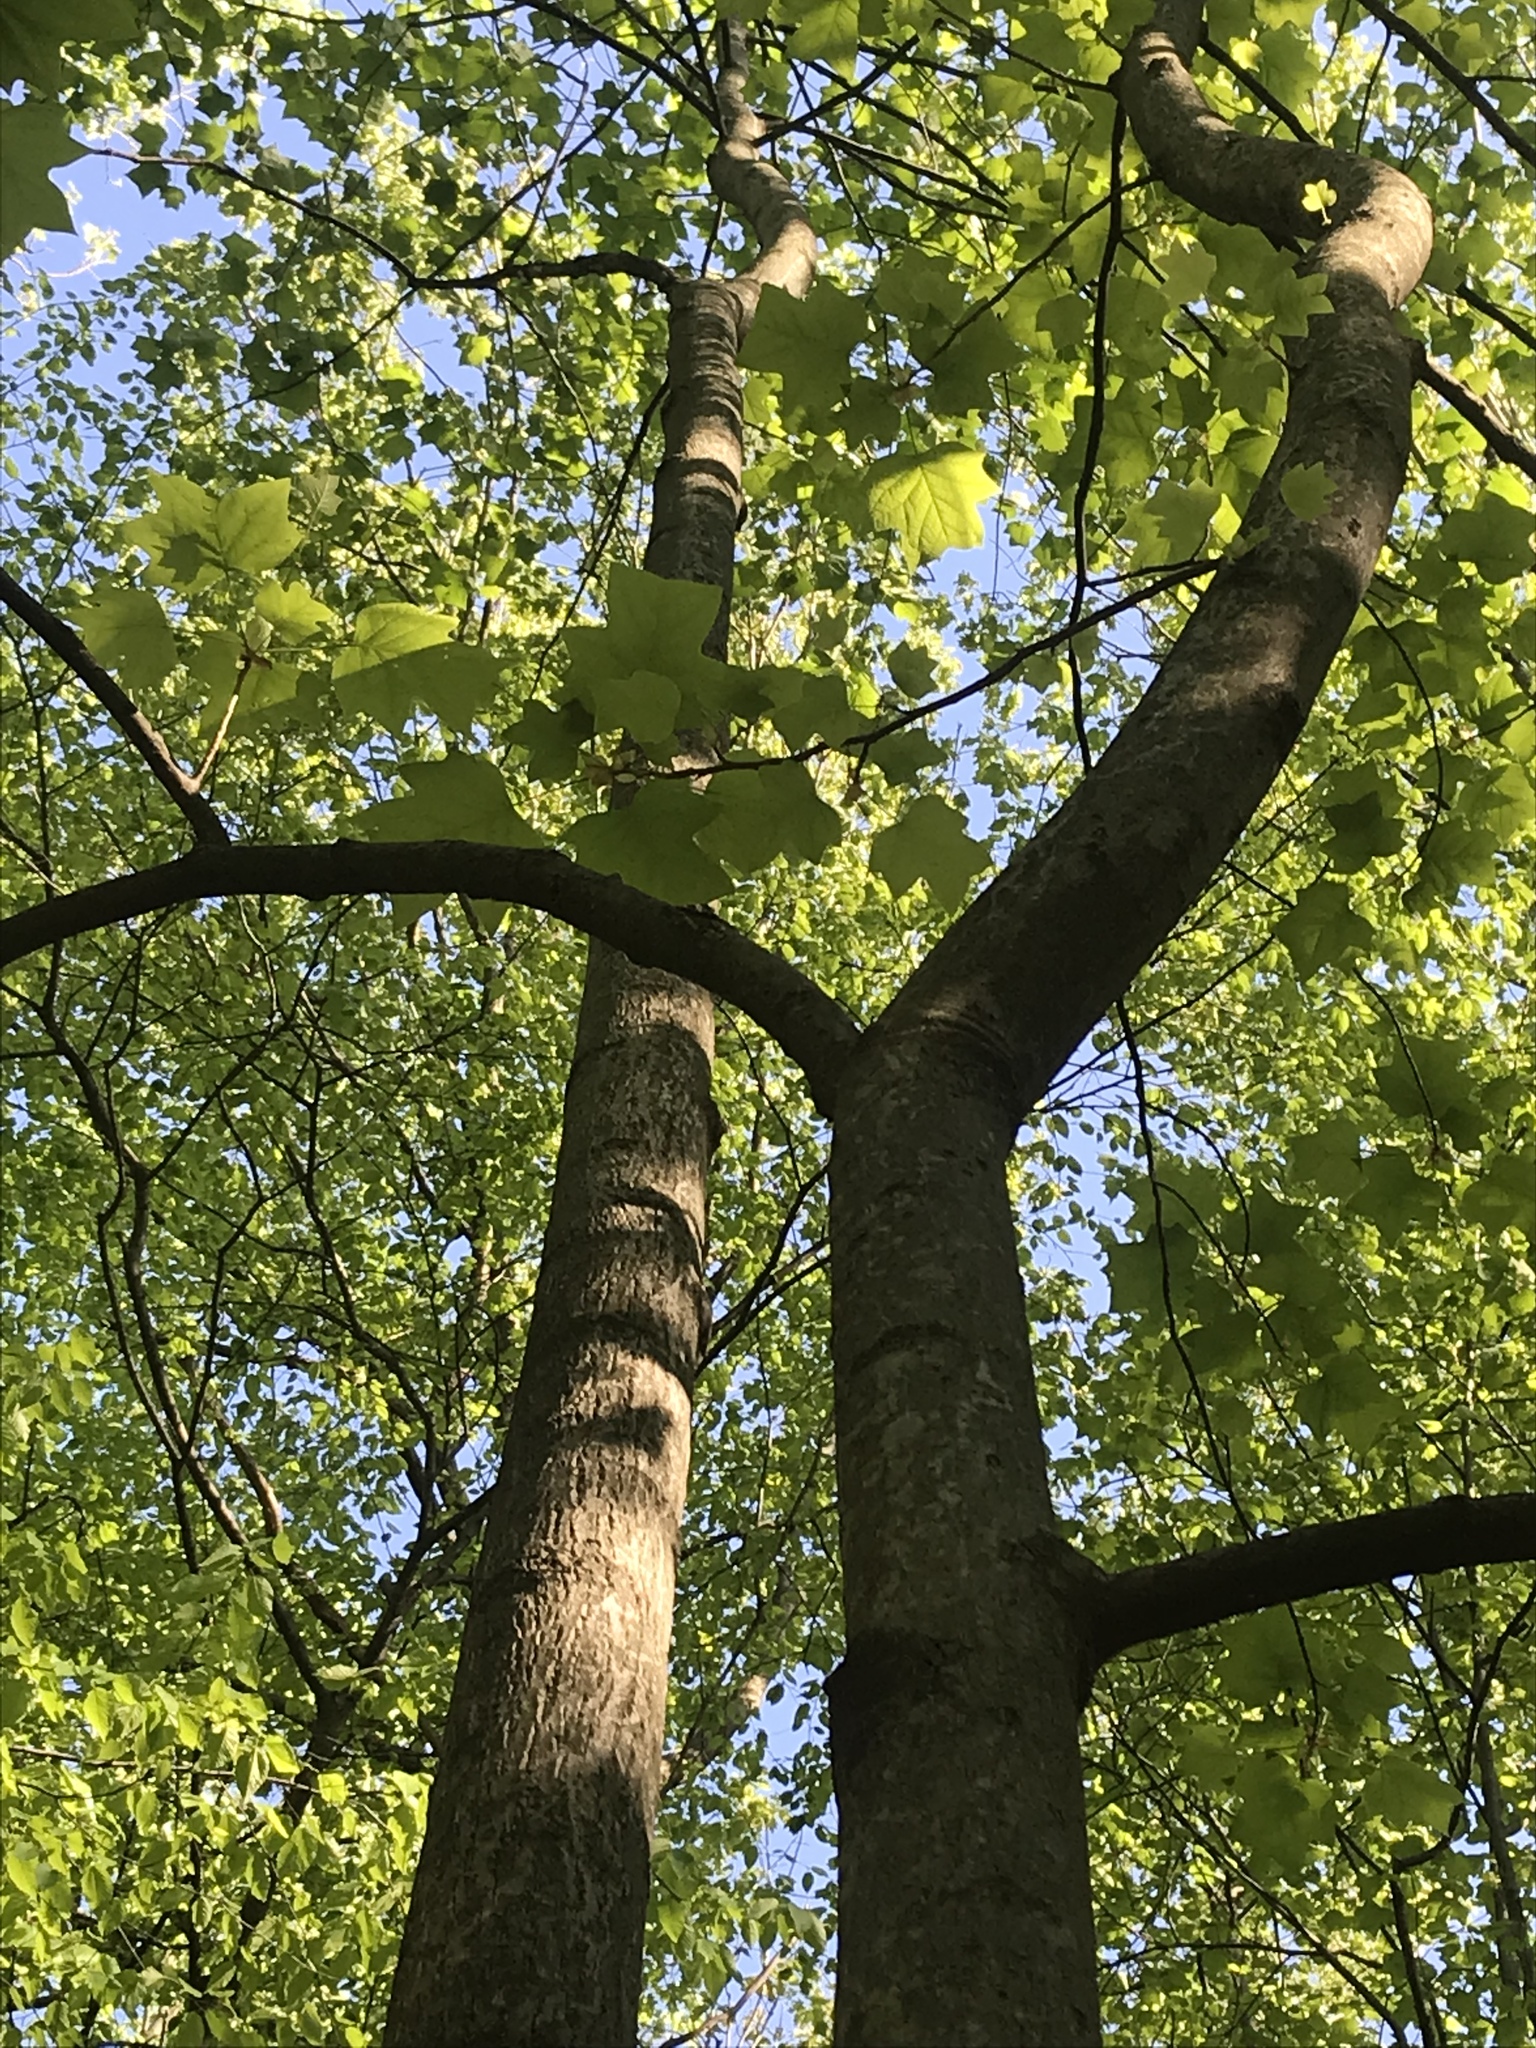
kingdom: Plantae
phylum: Tracheophyta
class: Magnoliopsida
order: Magnoliales
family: Magnoliaceae
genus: Liriodendron
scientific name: Liriodendron tulipifera
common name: Tulip tree
